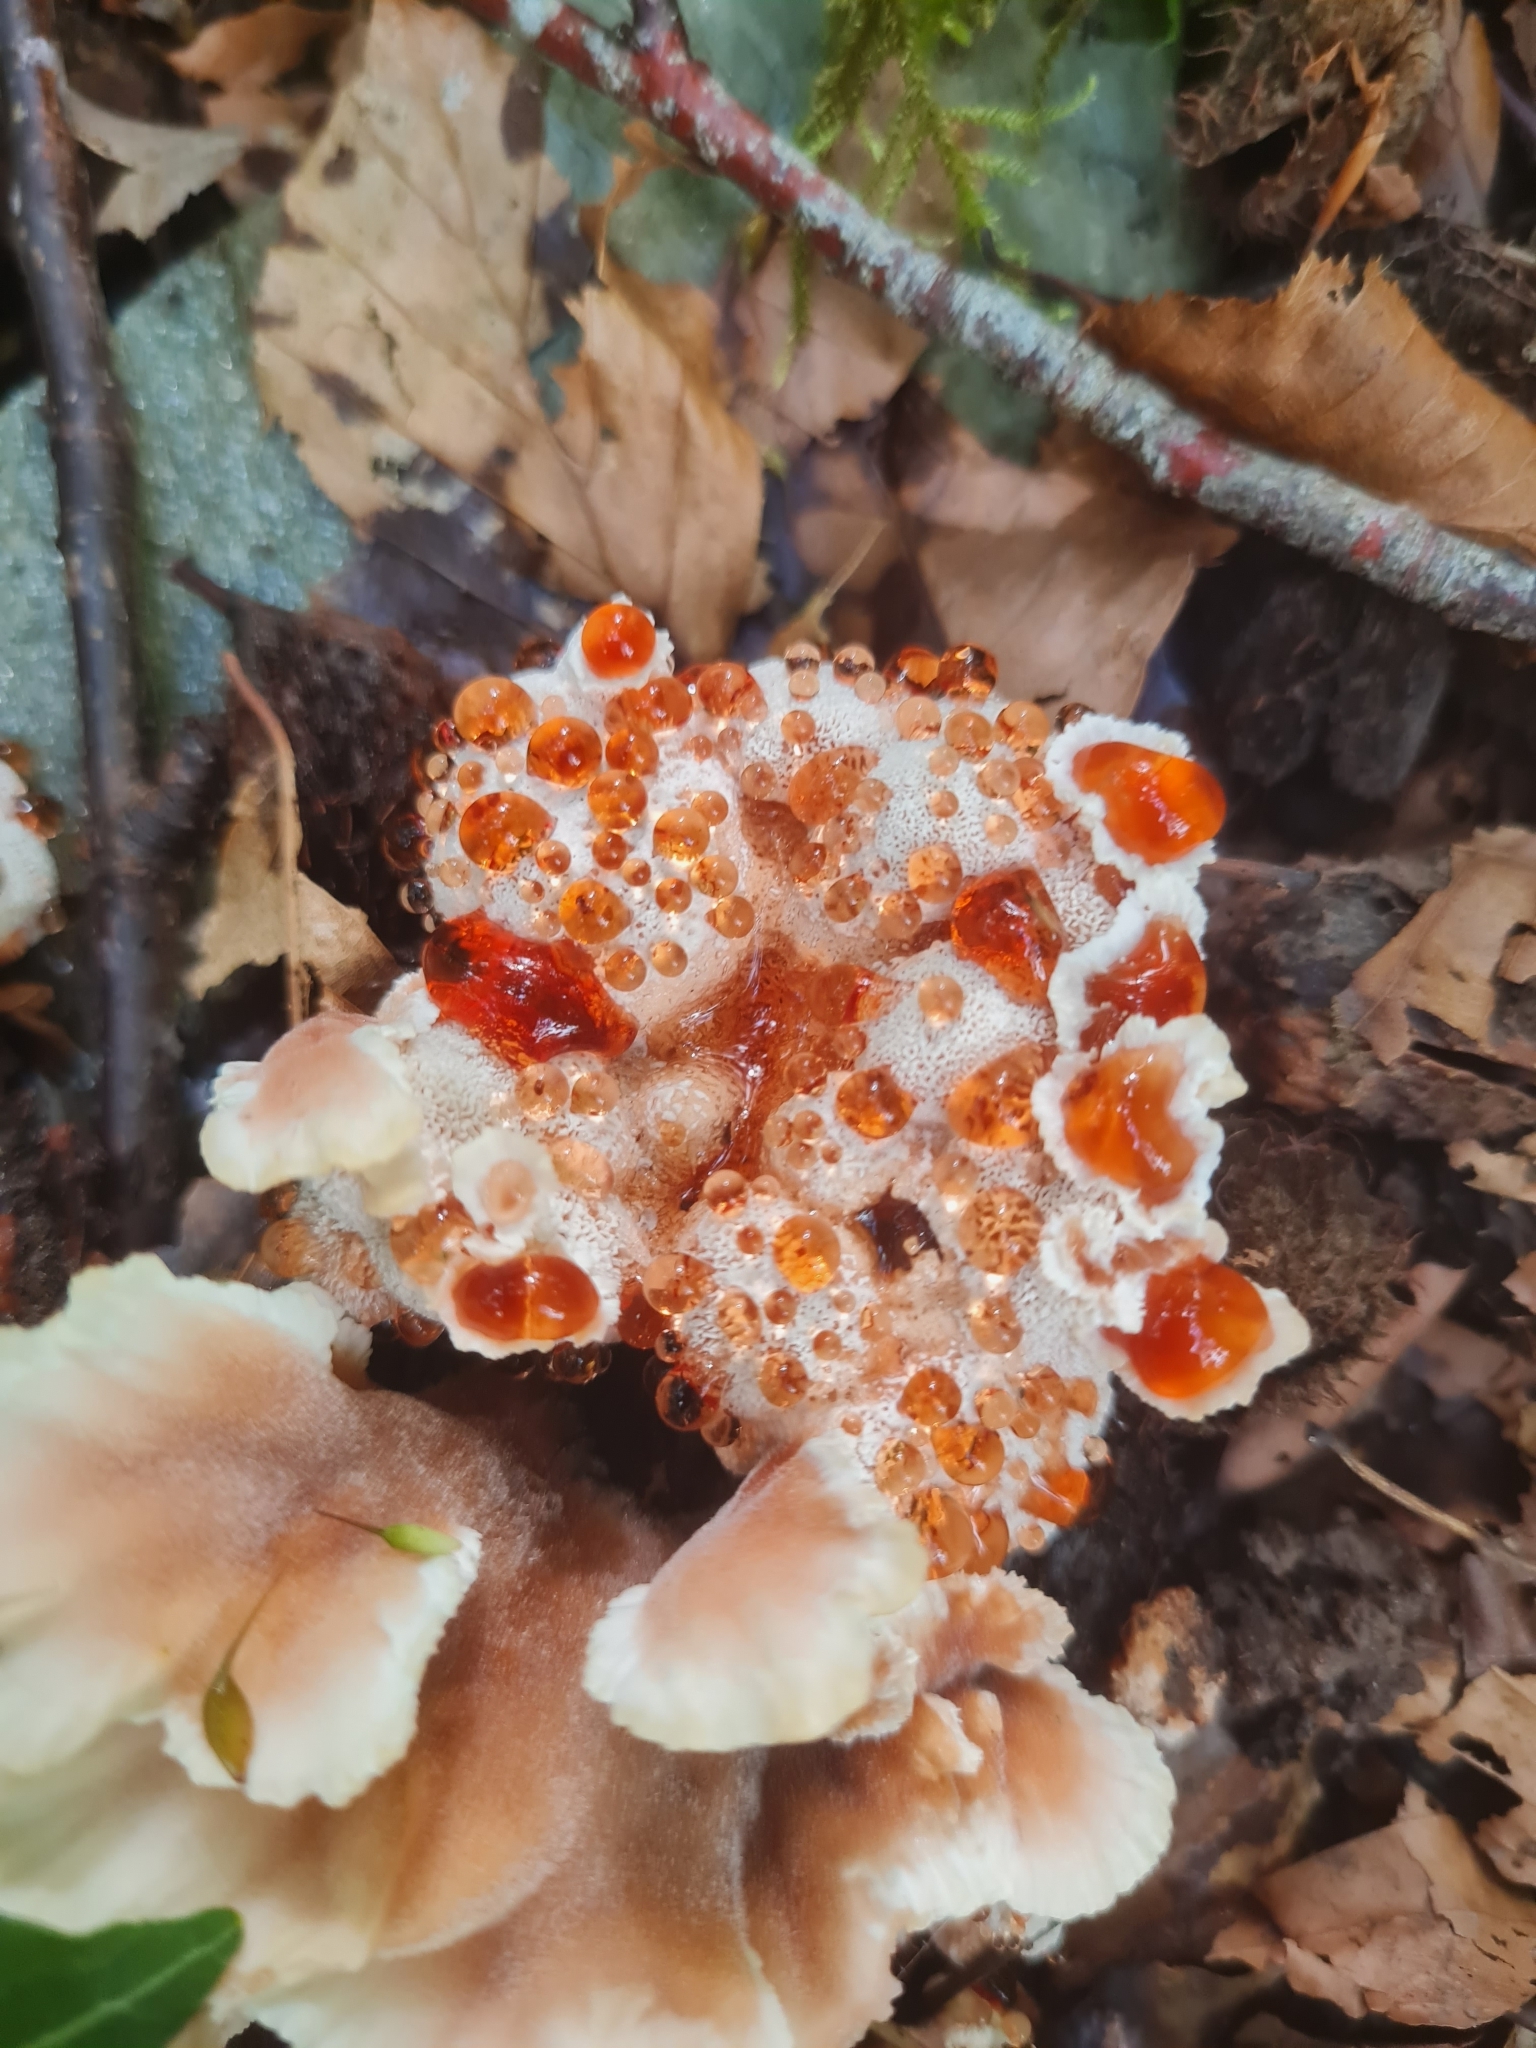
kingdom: Fungi
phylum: Basidiomycota
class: Agaricomycetes
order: Polyporales
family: Podoscyphaceae
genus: Abortiporus
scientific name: Abortiporus biennis
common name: Blushing rosette
